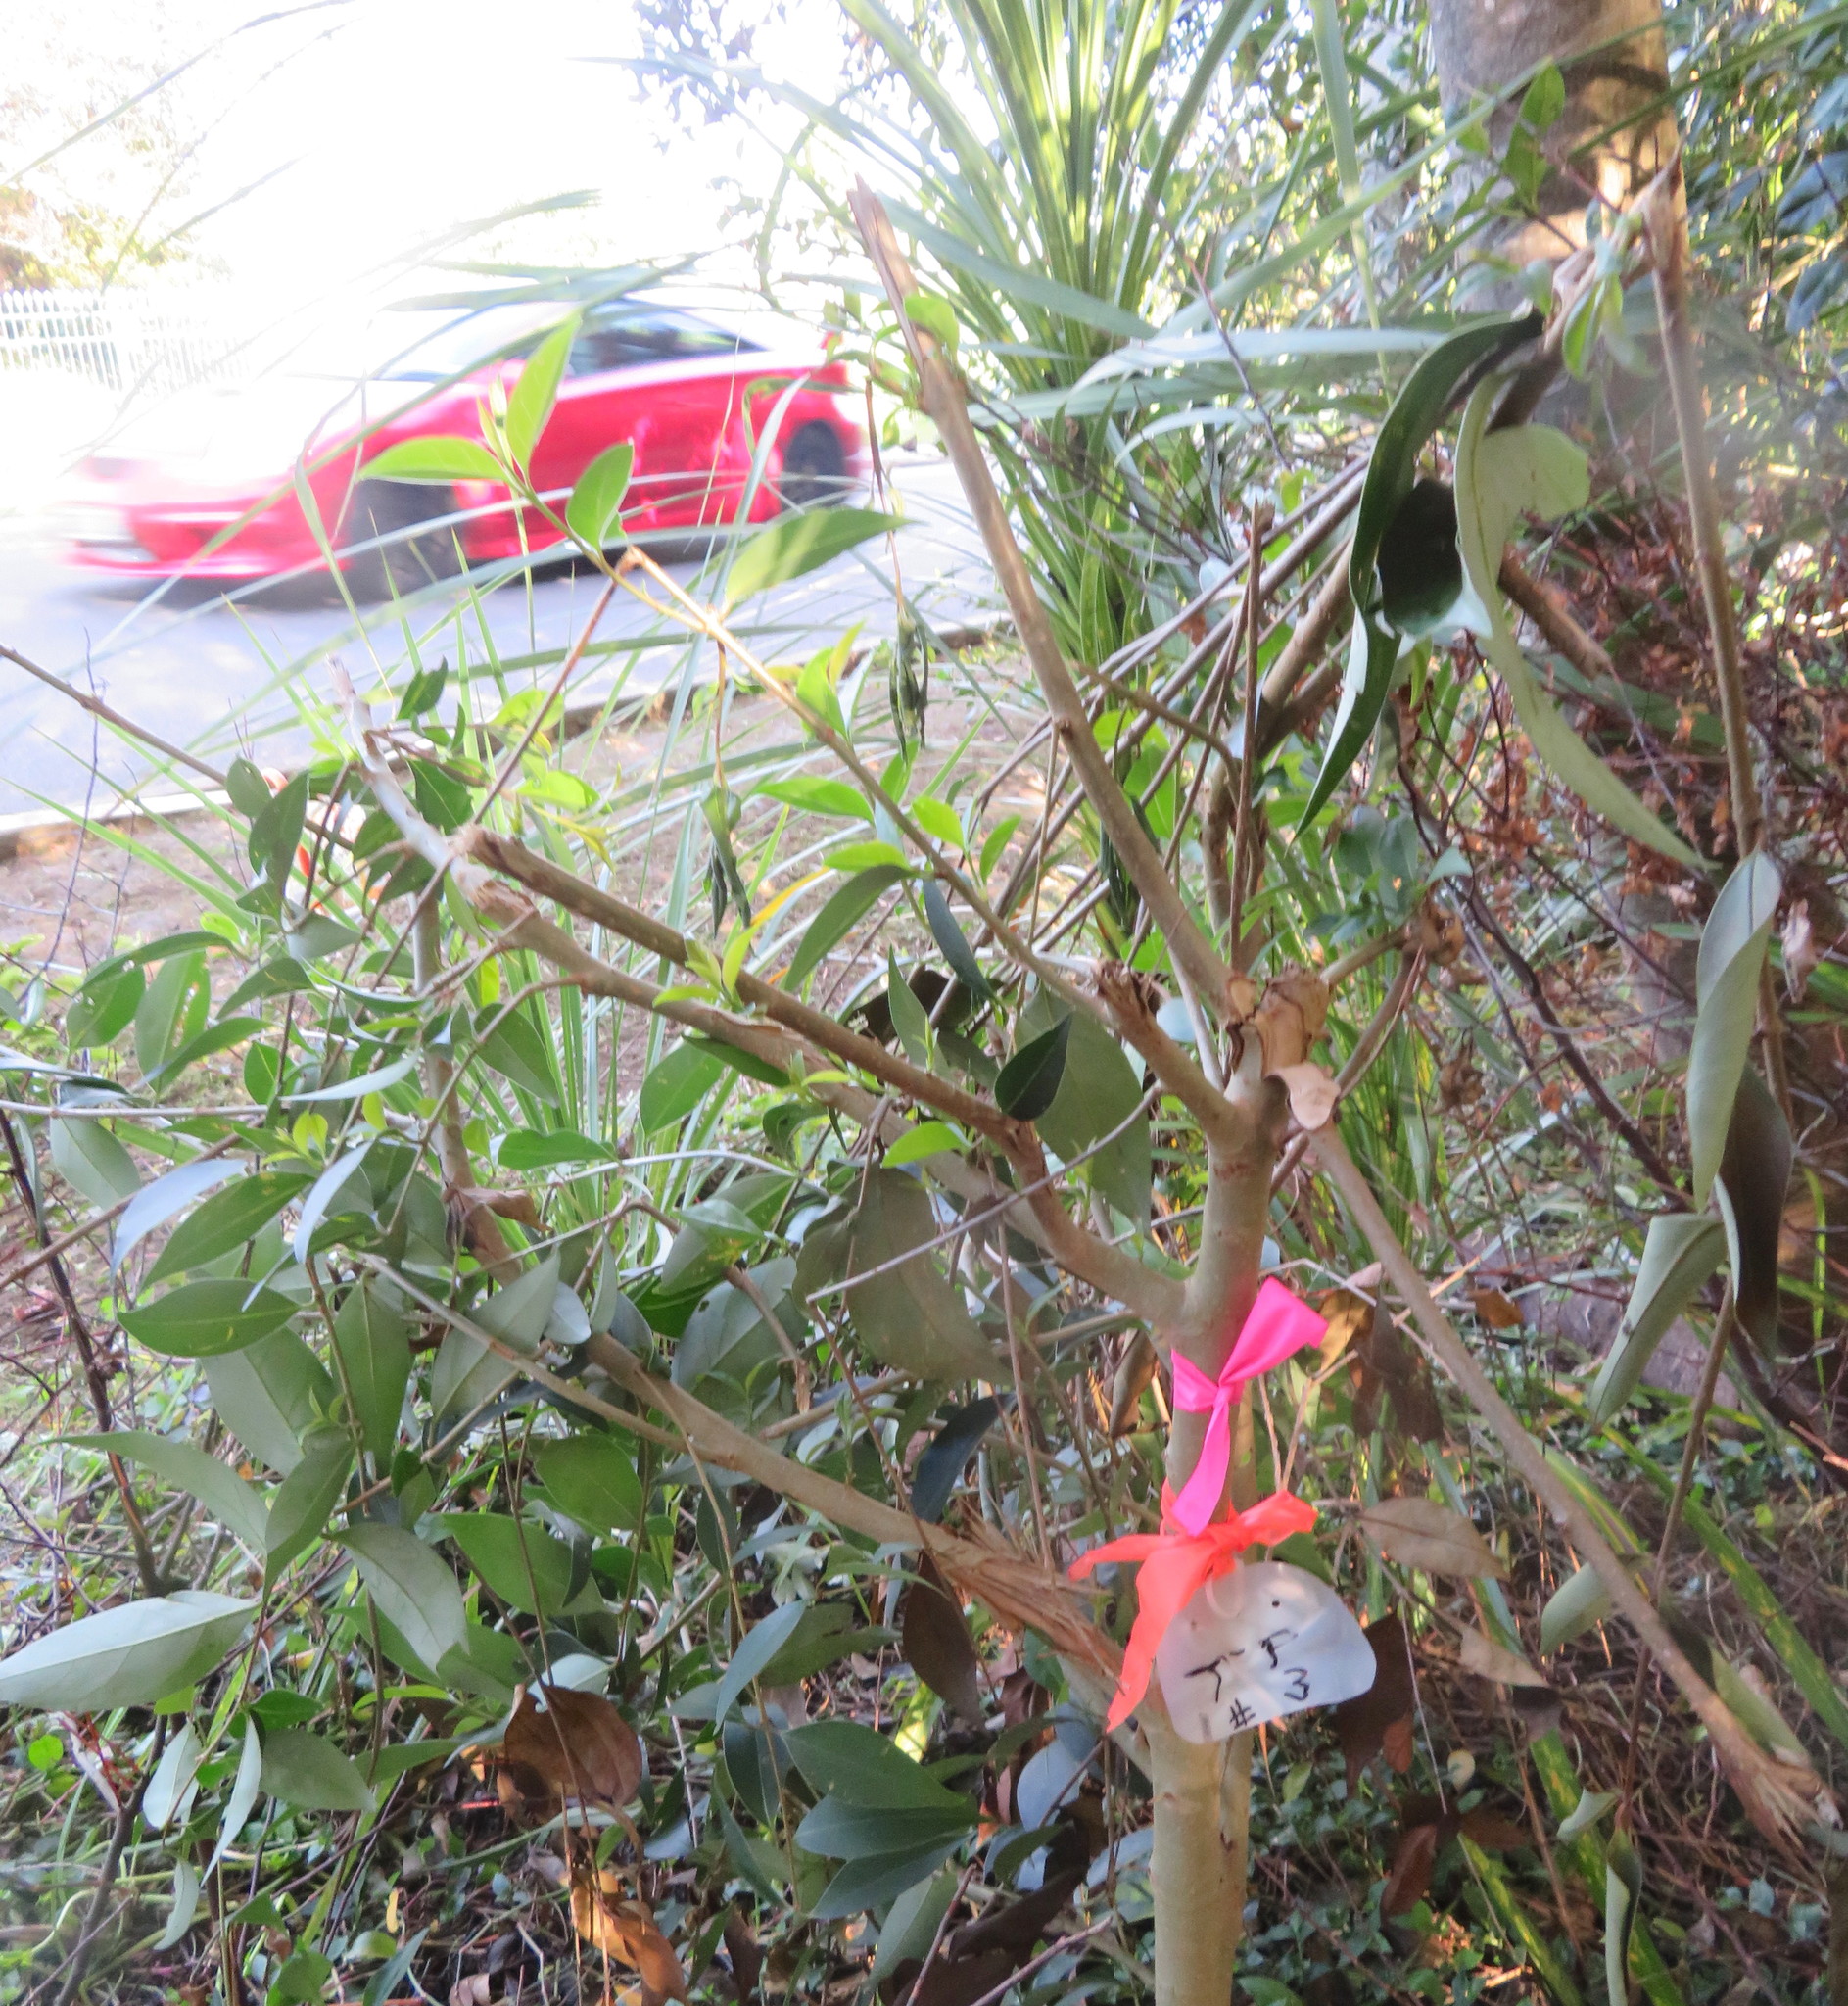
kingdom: Plantae
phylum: Tracheophyta
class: Magnoliopsida
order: Lamiales
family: Oleaceae
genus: Ligustrum
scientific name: Ligustrum lucidum
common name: Glossy privet
